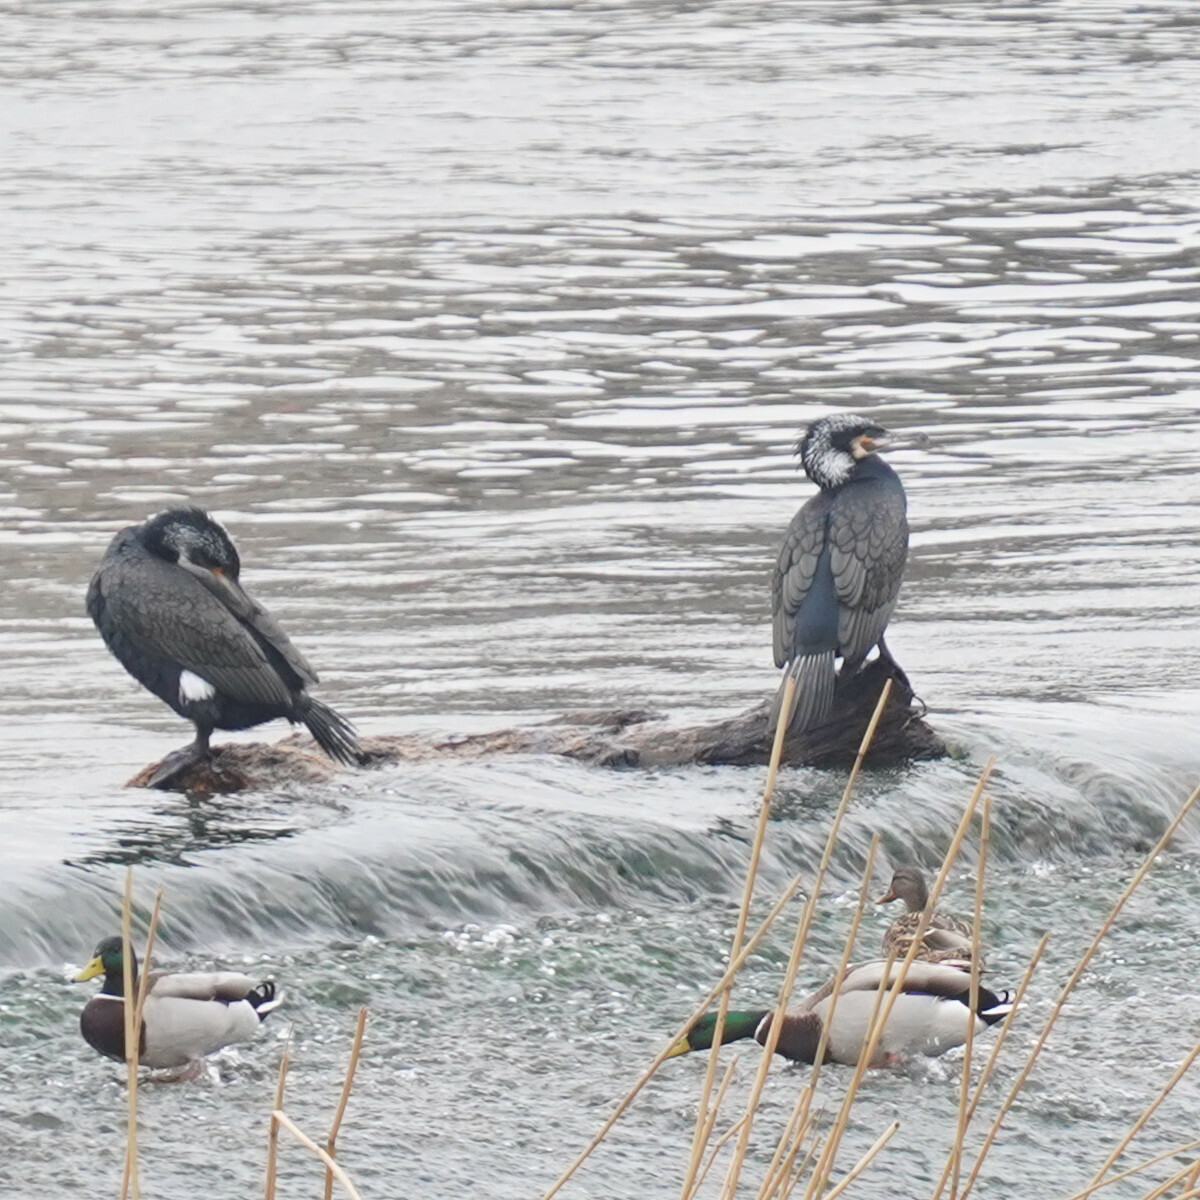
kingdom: Animalia
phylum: Chordata
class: Aves
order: Suliformes
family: Phalacrocoracidae
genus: Phalacrocorax
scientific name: Phalacrocorax carbo
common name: Great cormorant
